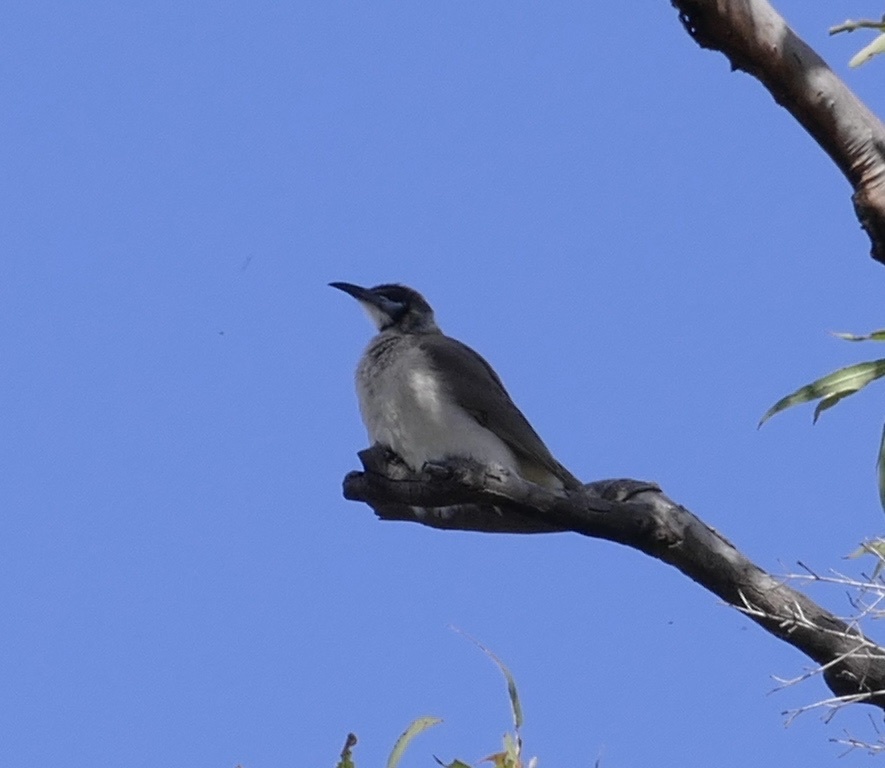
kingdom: Animalia
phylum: Chordata
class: Aves
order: Passeriformes
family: Meliphagidae
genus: Philemon
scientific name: Philemon citreogularis
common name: Little friarbird
